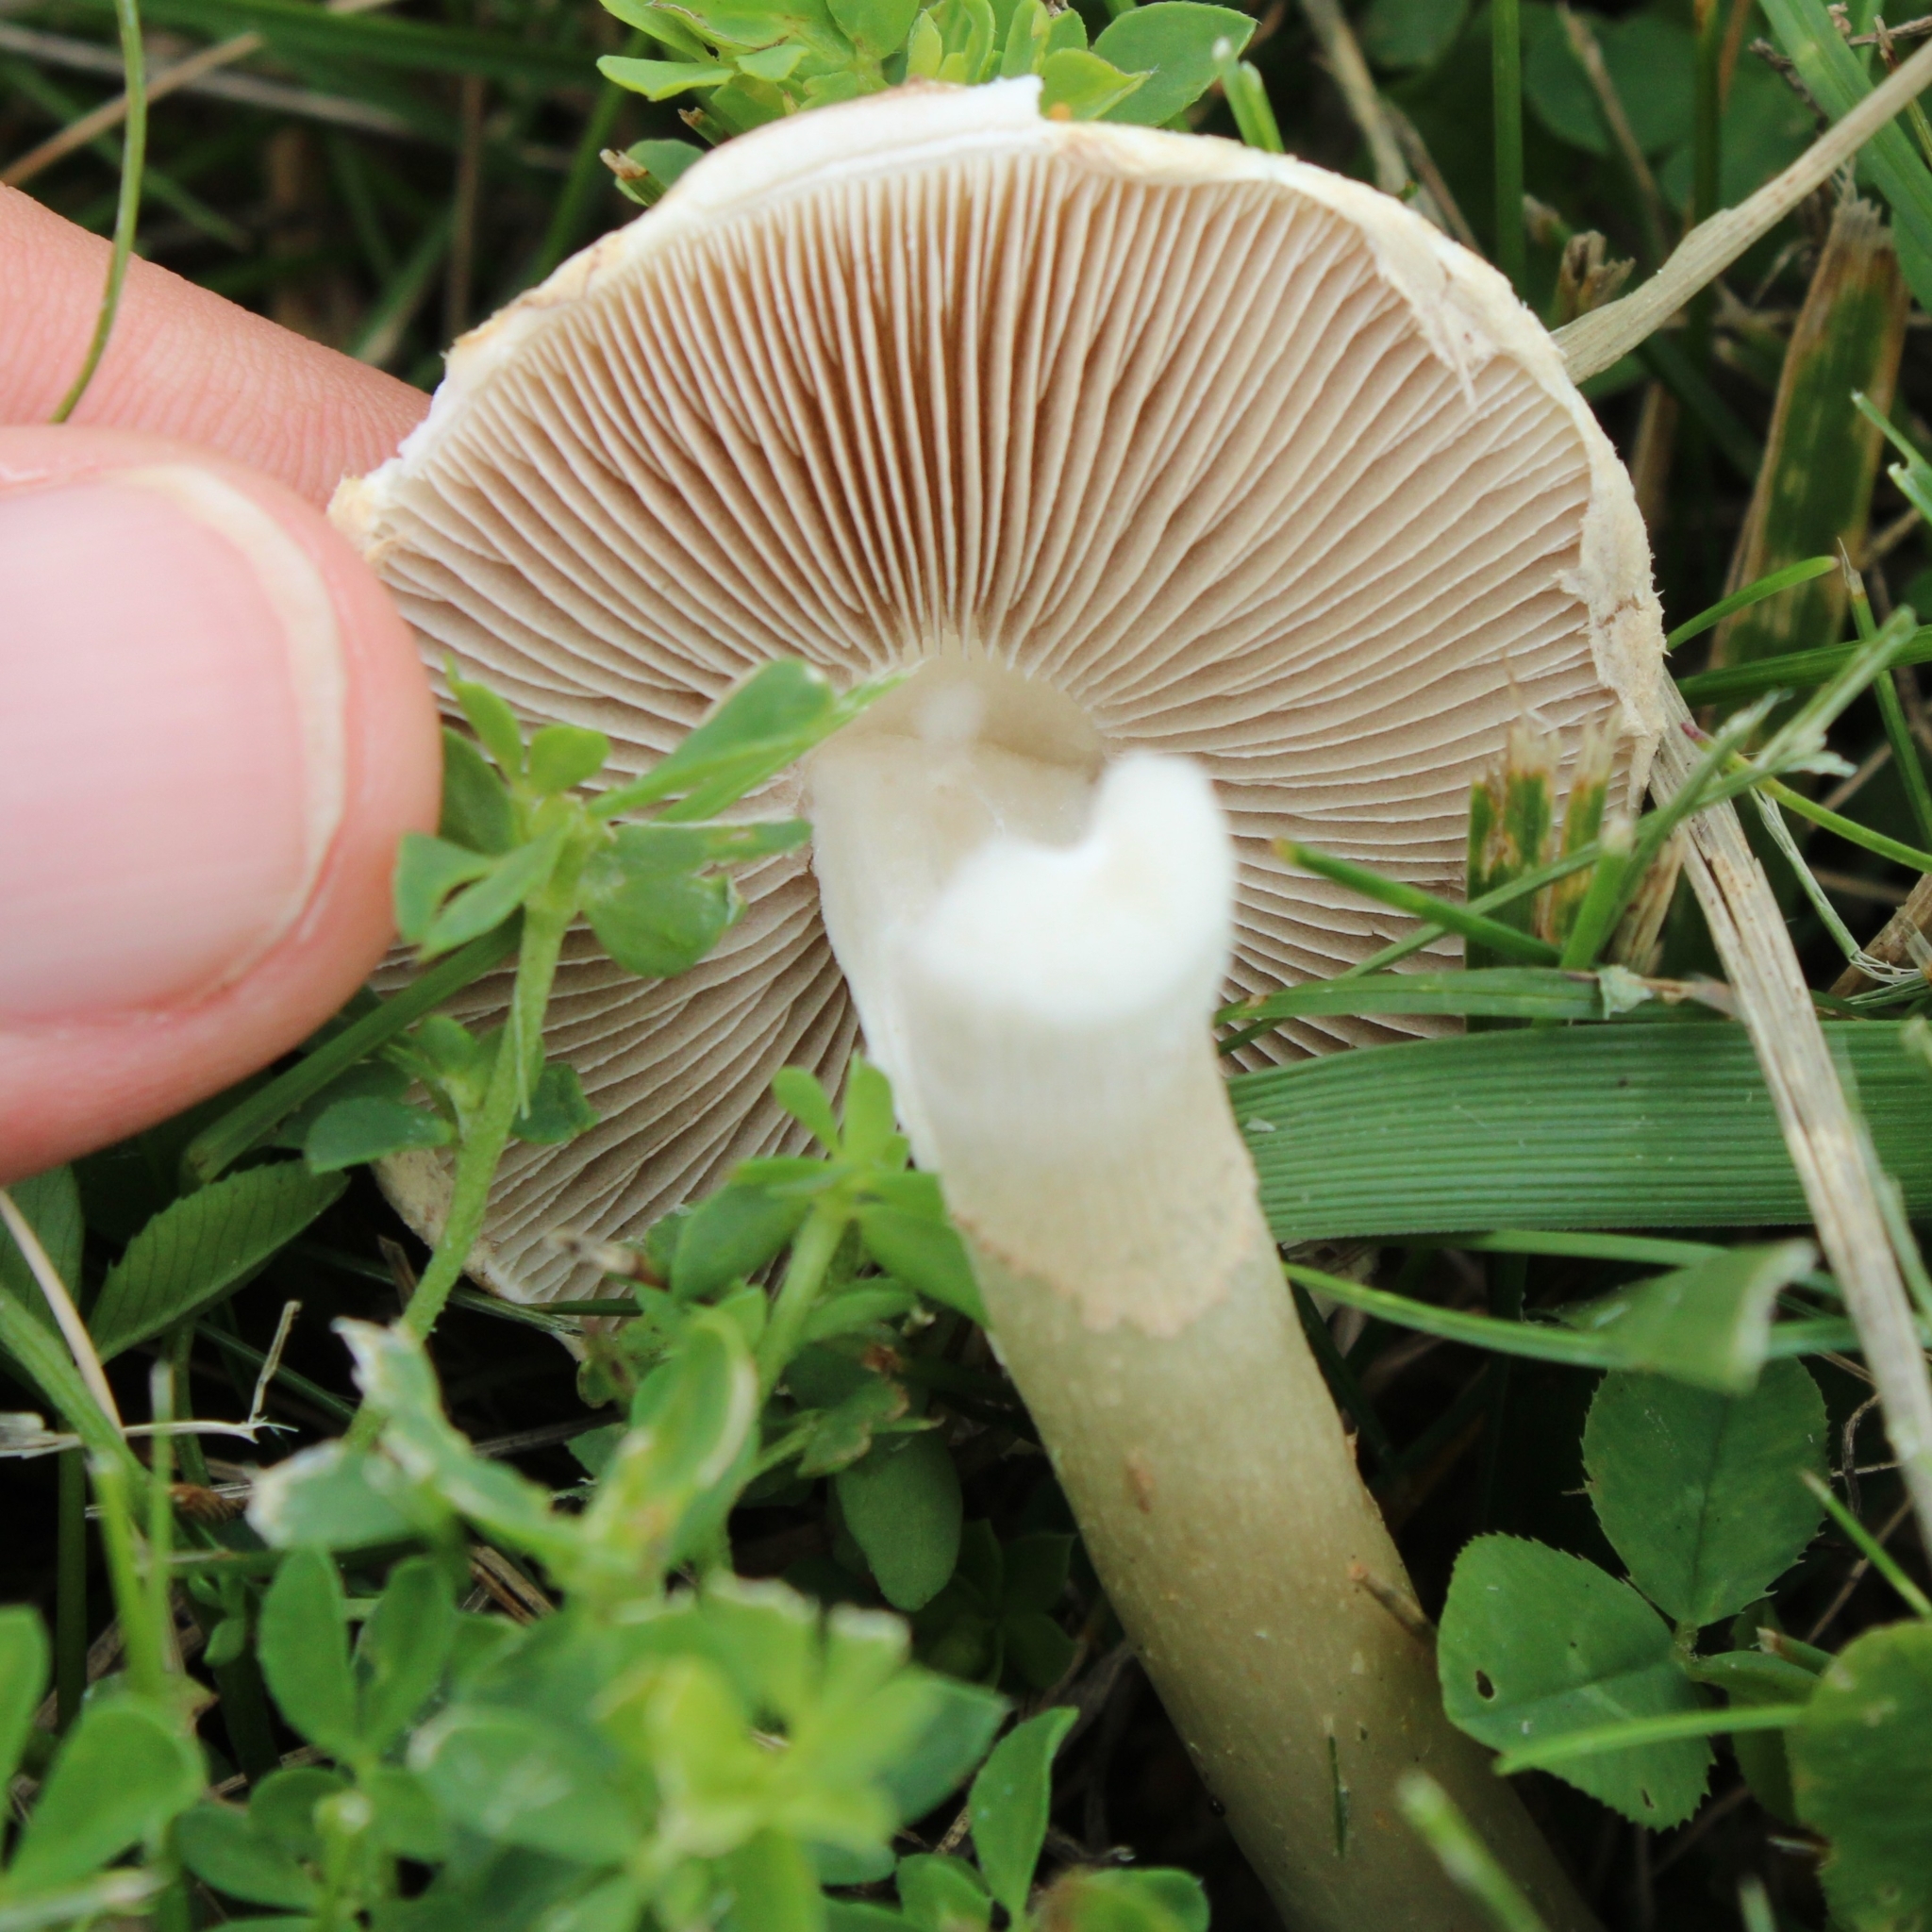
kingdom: Fungi
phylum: Basidiomycota
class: Agaricomycetes
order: Agaricales
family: Strophariaceae
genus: Agrocybe
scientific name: Agrocybe molesta
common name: Bearded fieldcap
